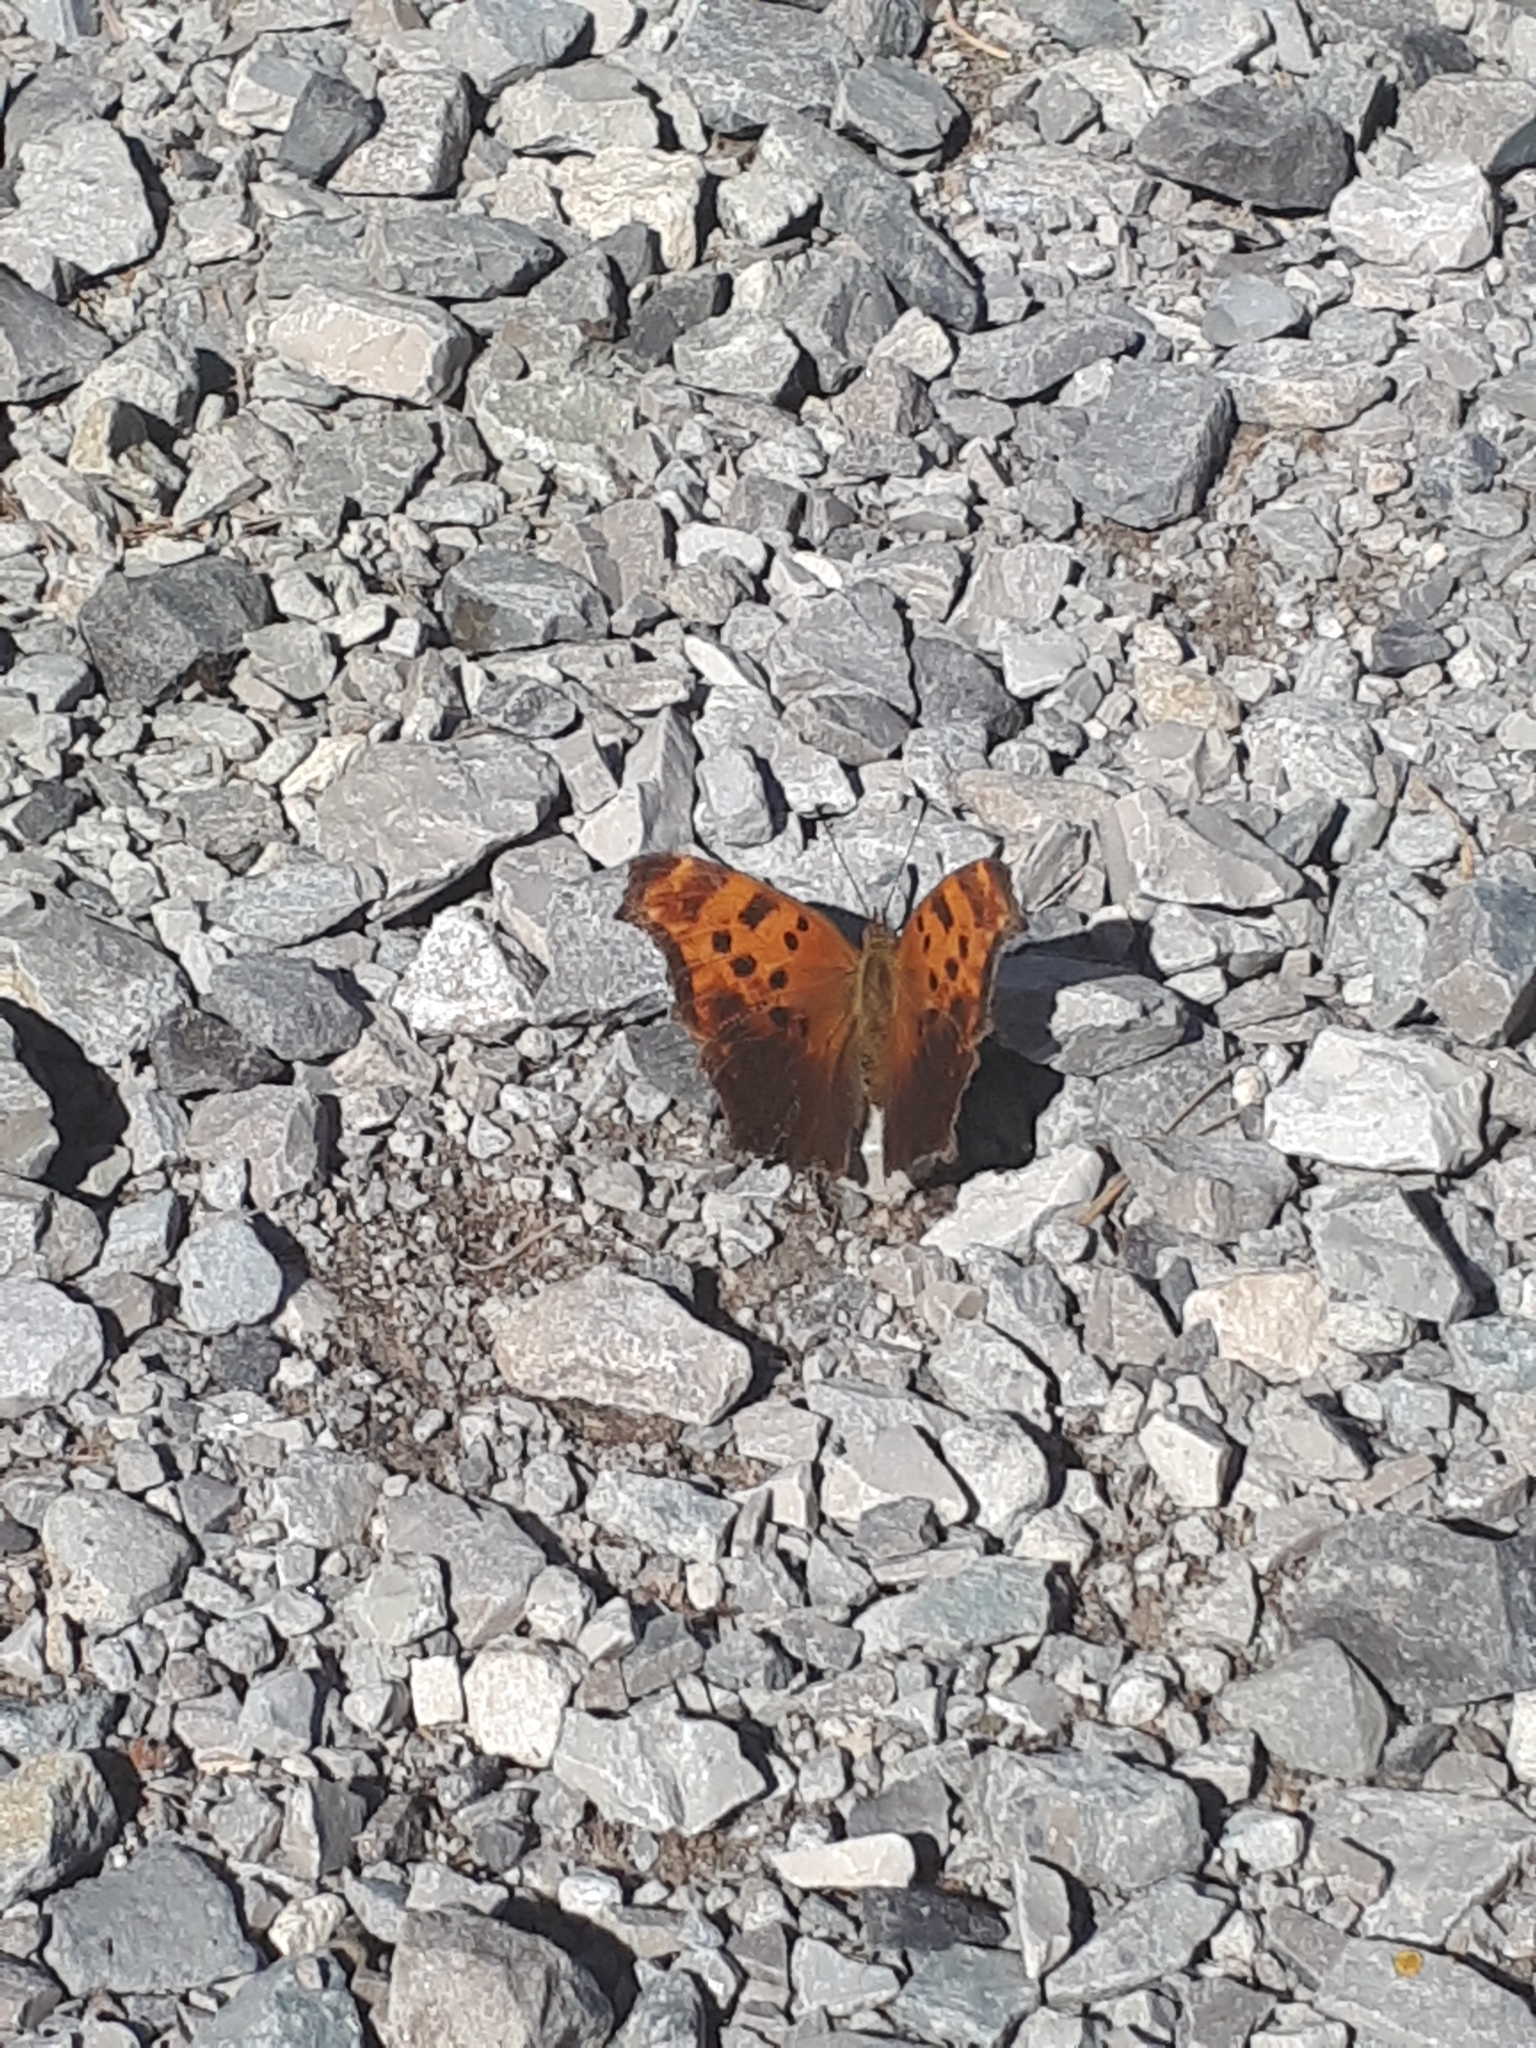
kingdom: Animalia
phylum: Arthropoda
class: Insecta
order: Lepidoptera
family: Nymphalidae
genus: Polygonia
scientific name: Polygonia comma
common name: Eastern comma
